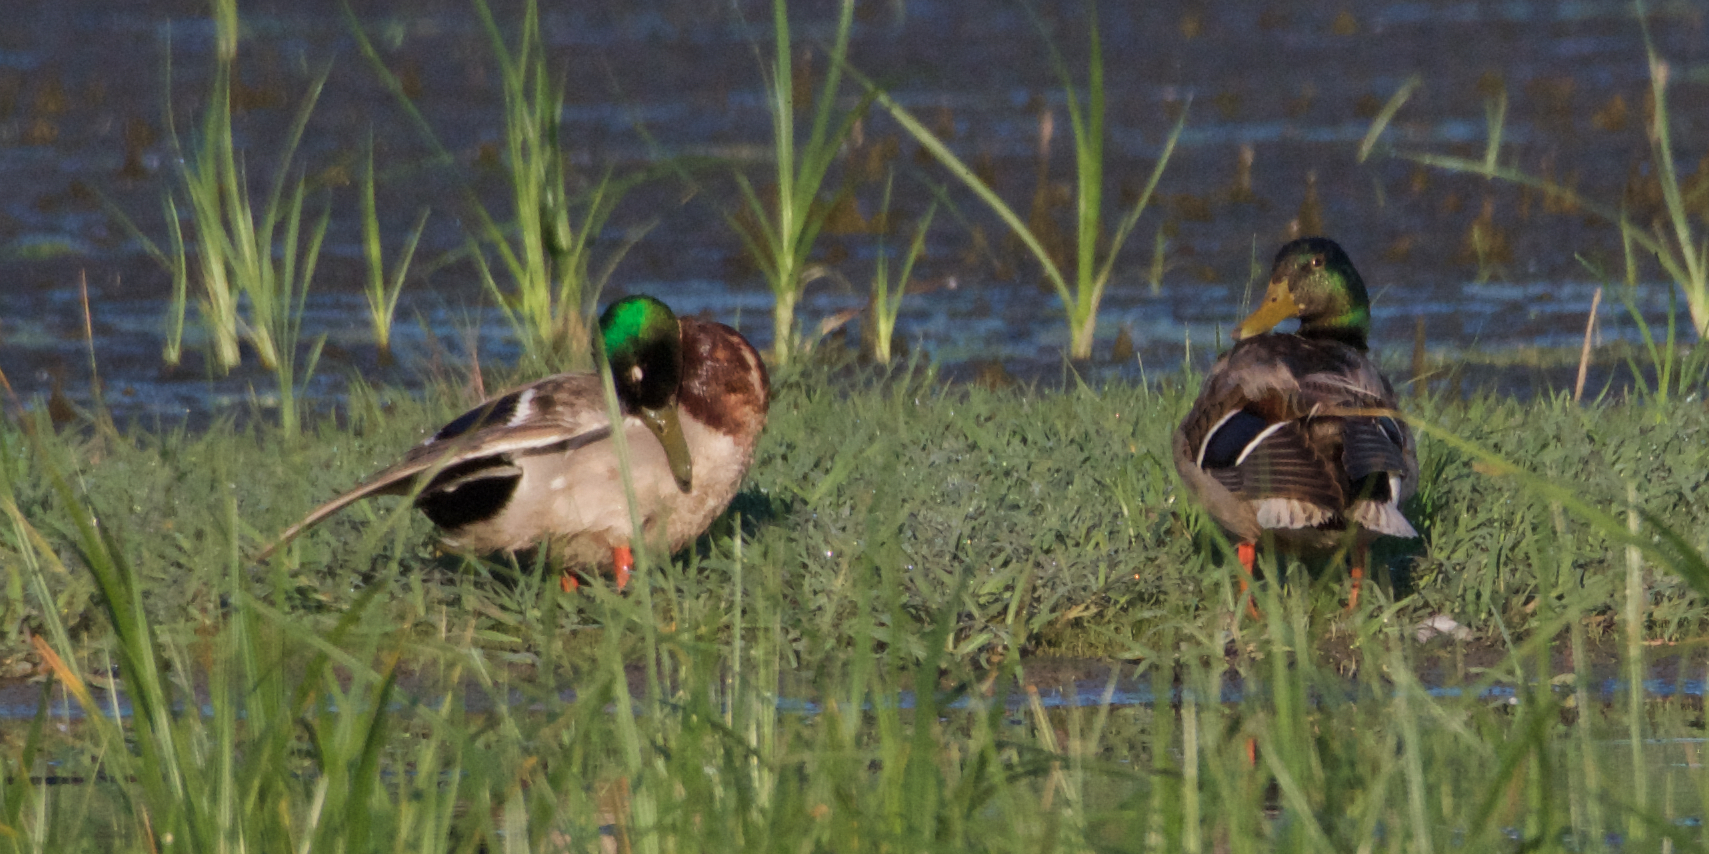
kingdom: Animalia
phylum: Chordata
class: Aves
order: Anseriformes
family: Anatidae
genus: Anas
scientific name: Anas platyrhynchos
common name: Mallard
